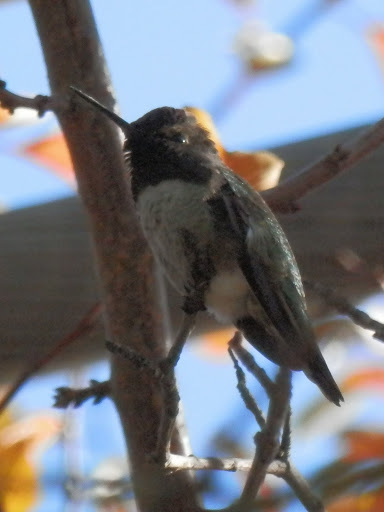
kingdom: Animalia
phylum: Chordata
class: Aves
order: Apodiformes
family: Trochilidae
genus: Calypte
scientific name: Calypte anna
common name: Anna's hummingbird
